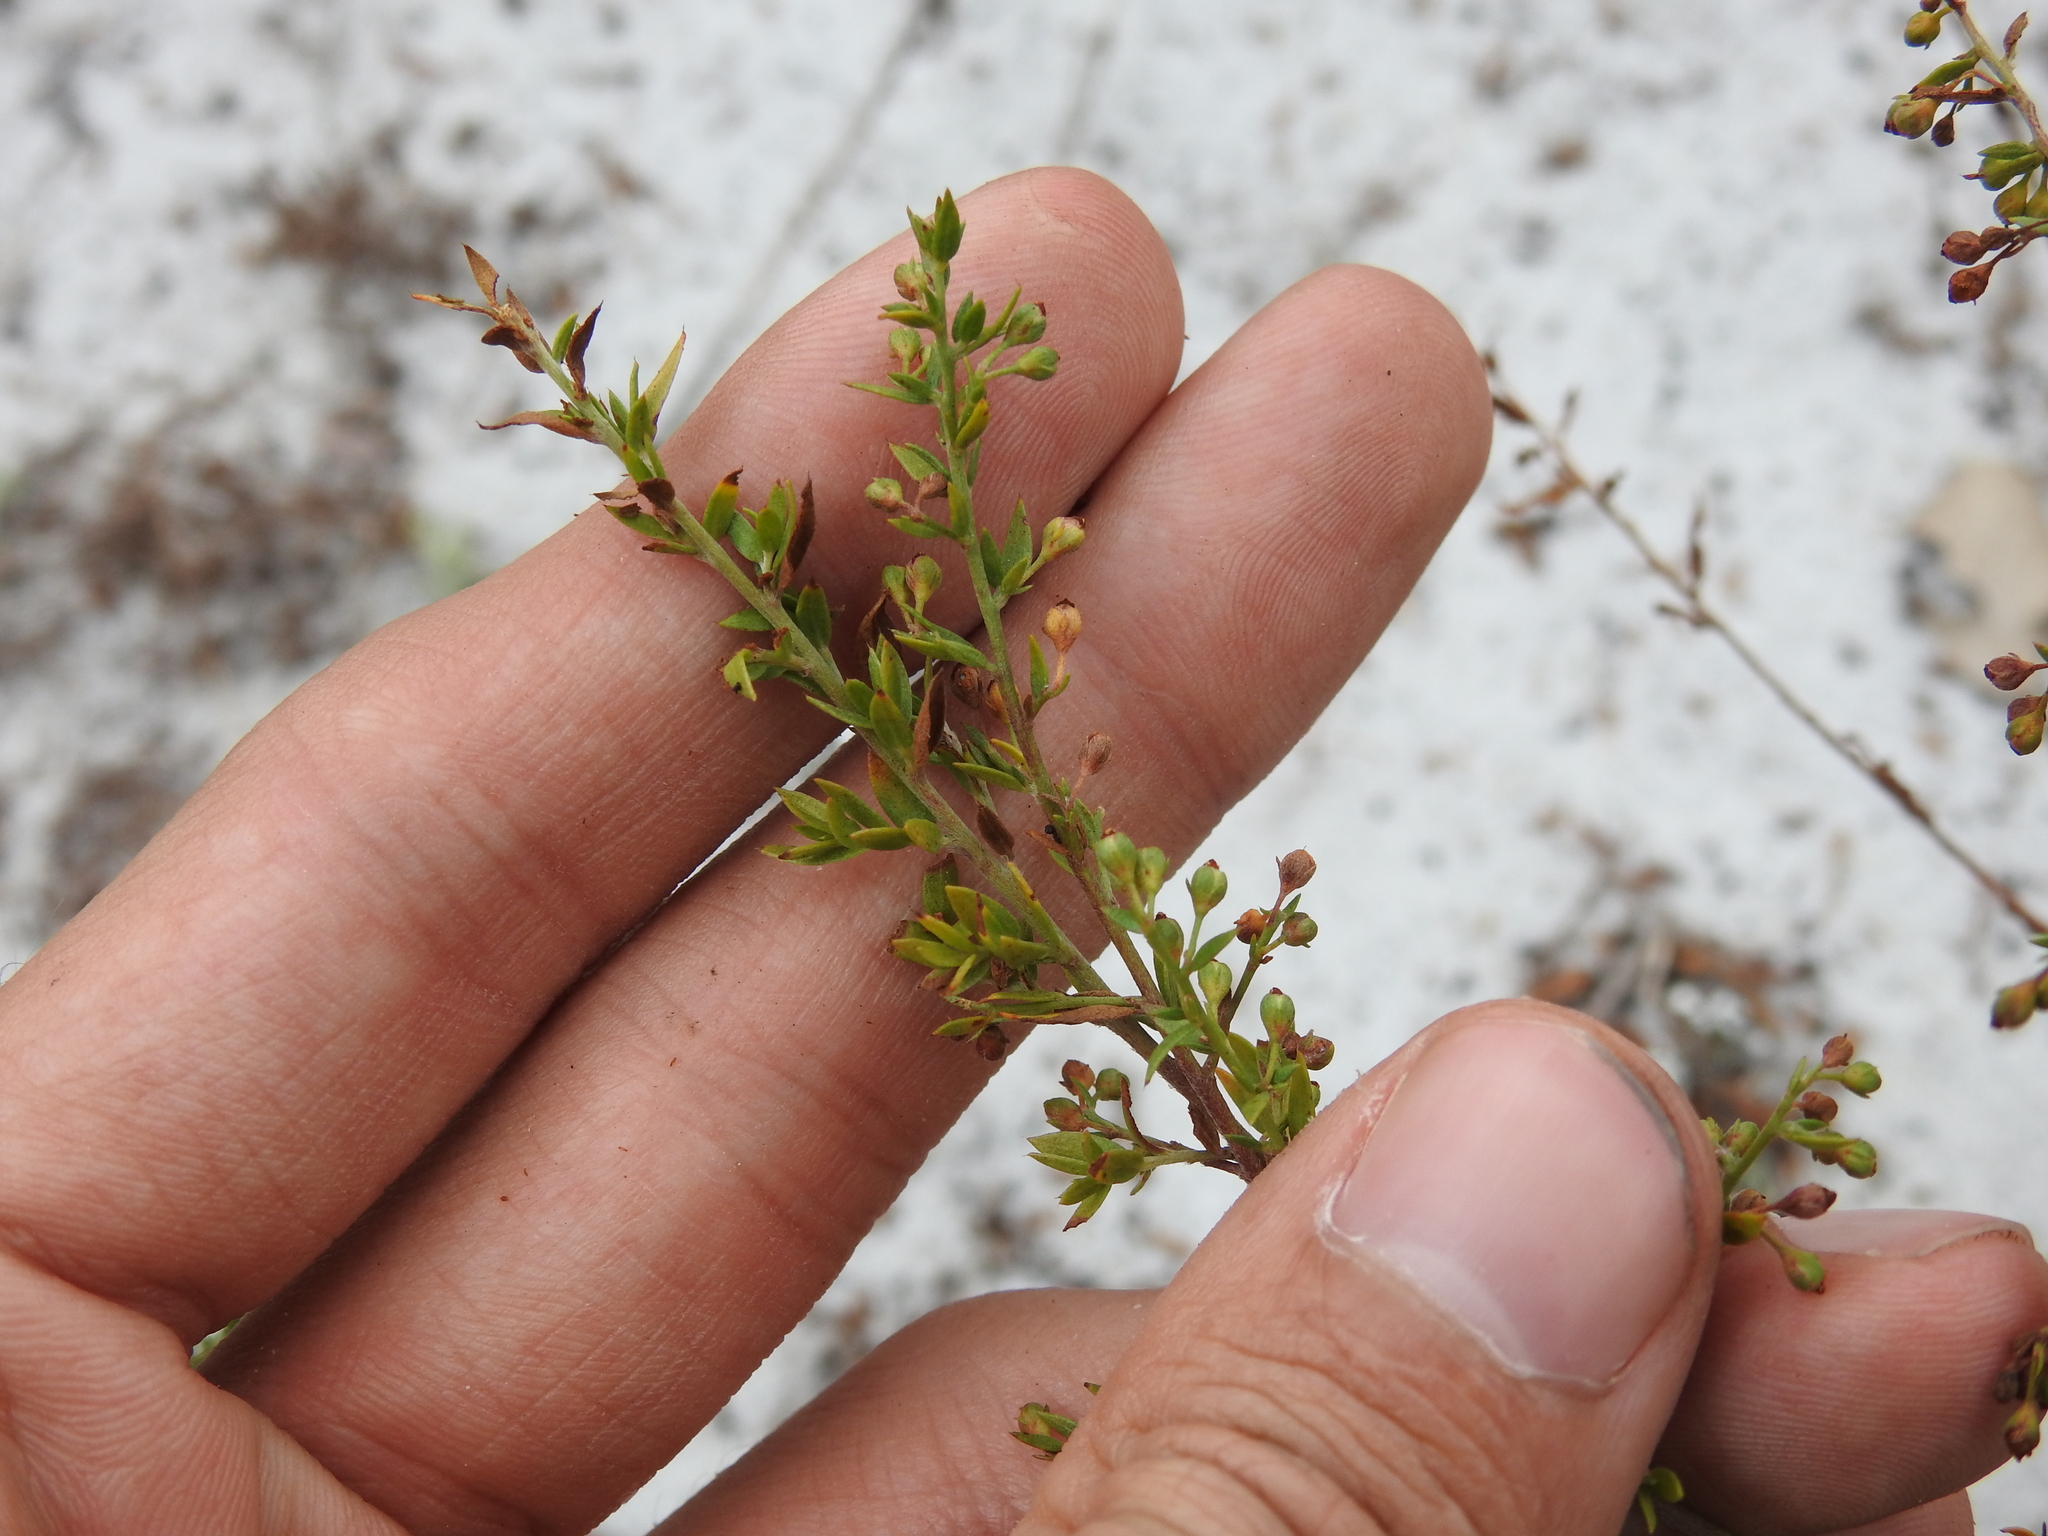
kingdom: Plantae
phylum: Tracheophyta
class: Magnoliopsida
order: Malvales
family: Cistaceae
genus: Lechea
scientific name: Lechea cernua
